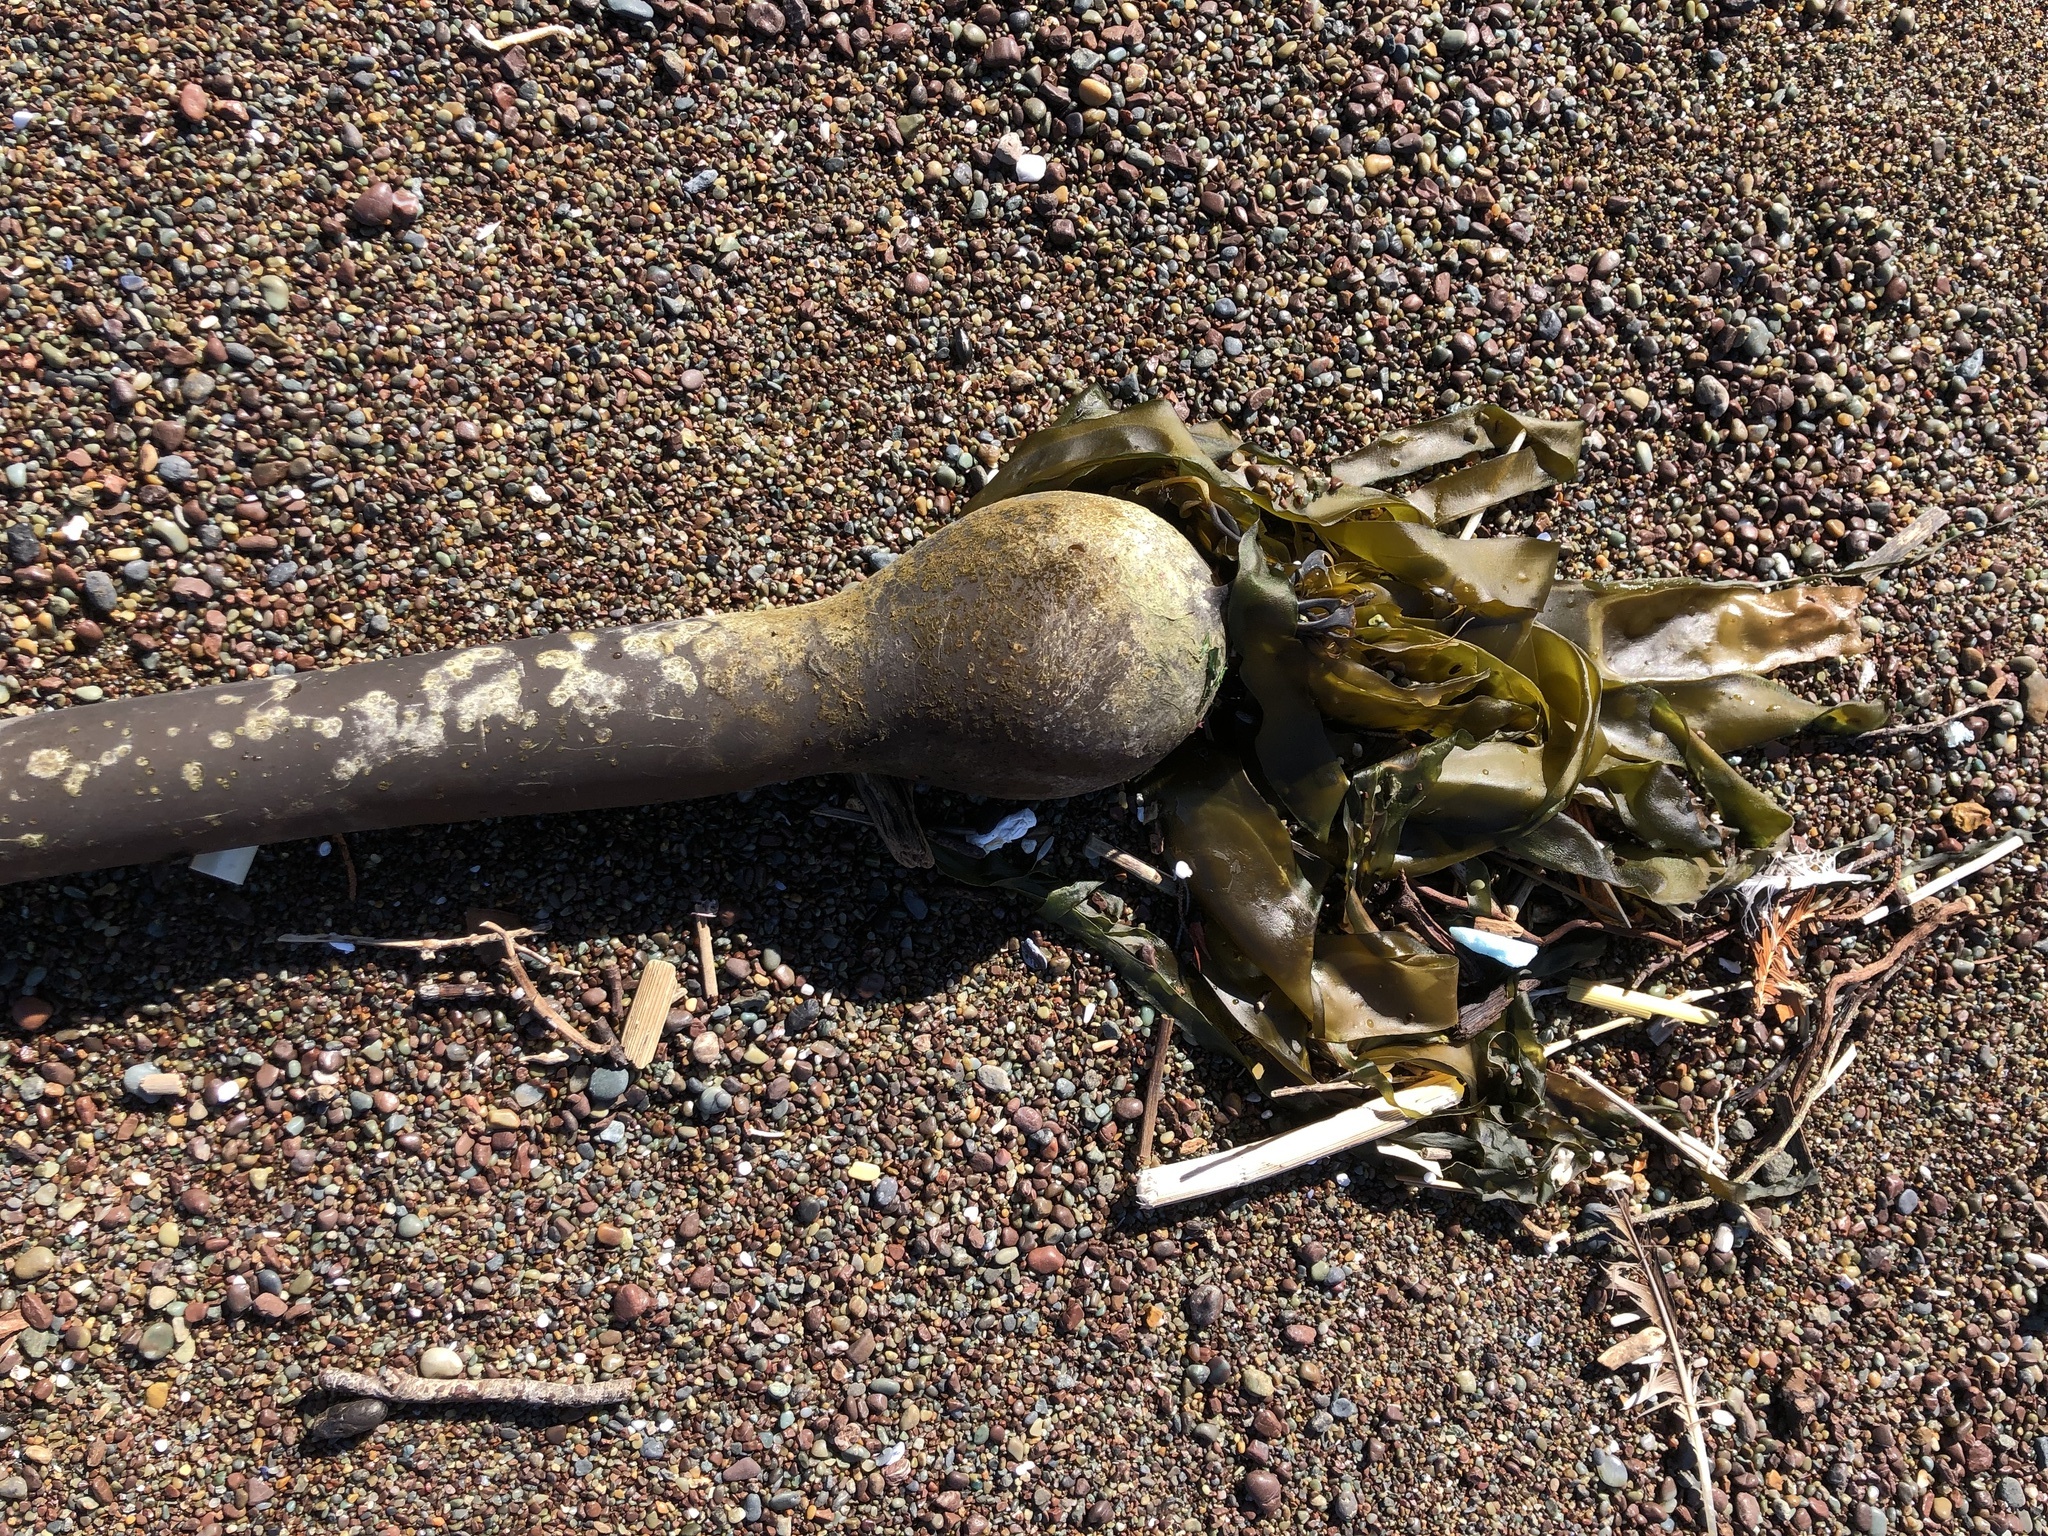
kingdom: Chromista
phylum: Ochrophyta
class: Phaeophyceae
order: Laminariales
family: Laminariaceae
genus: Nereocystis
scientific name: Nereocystis luetkeana
